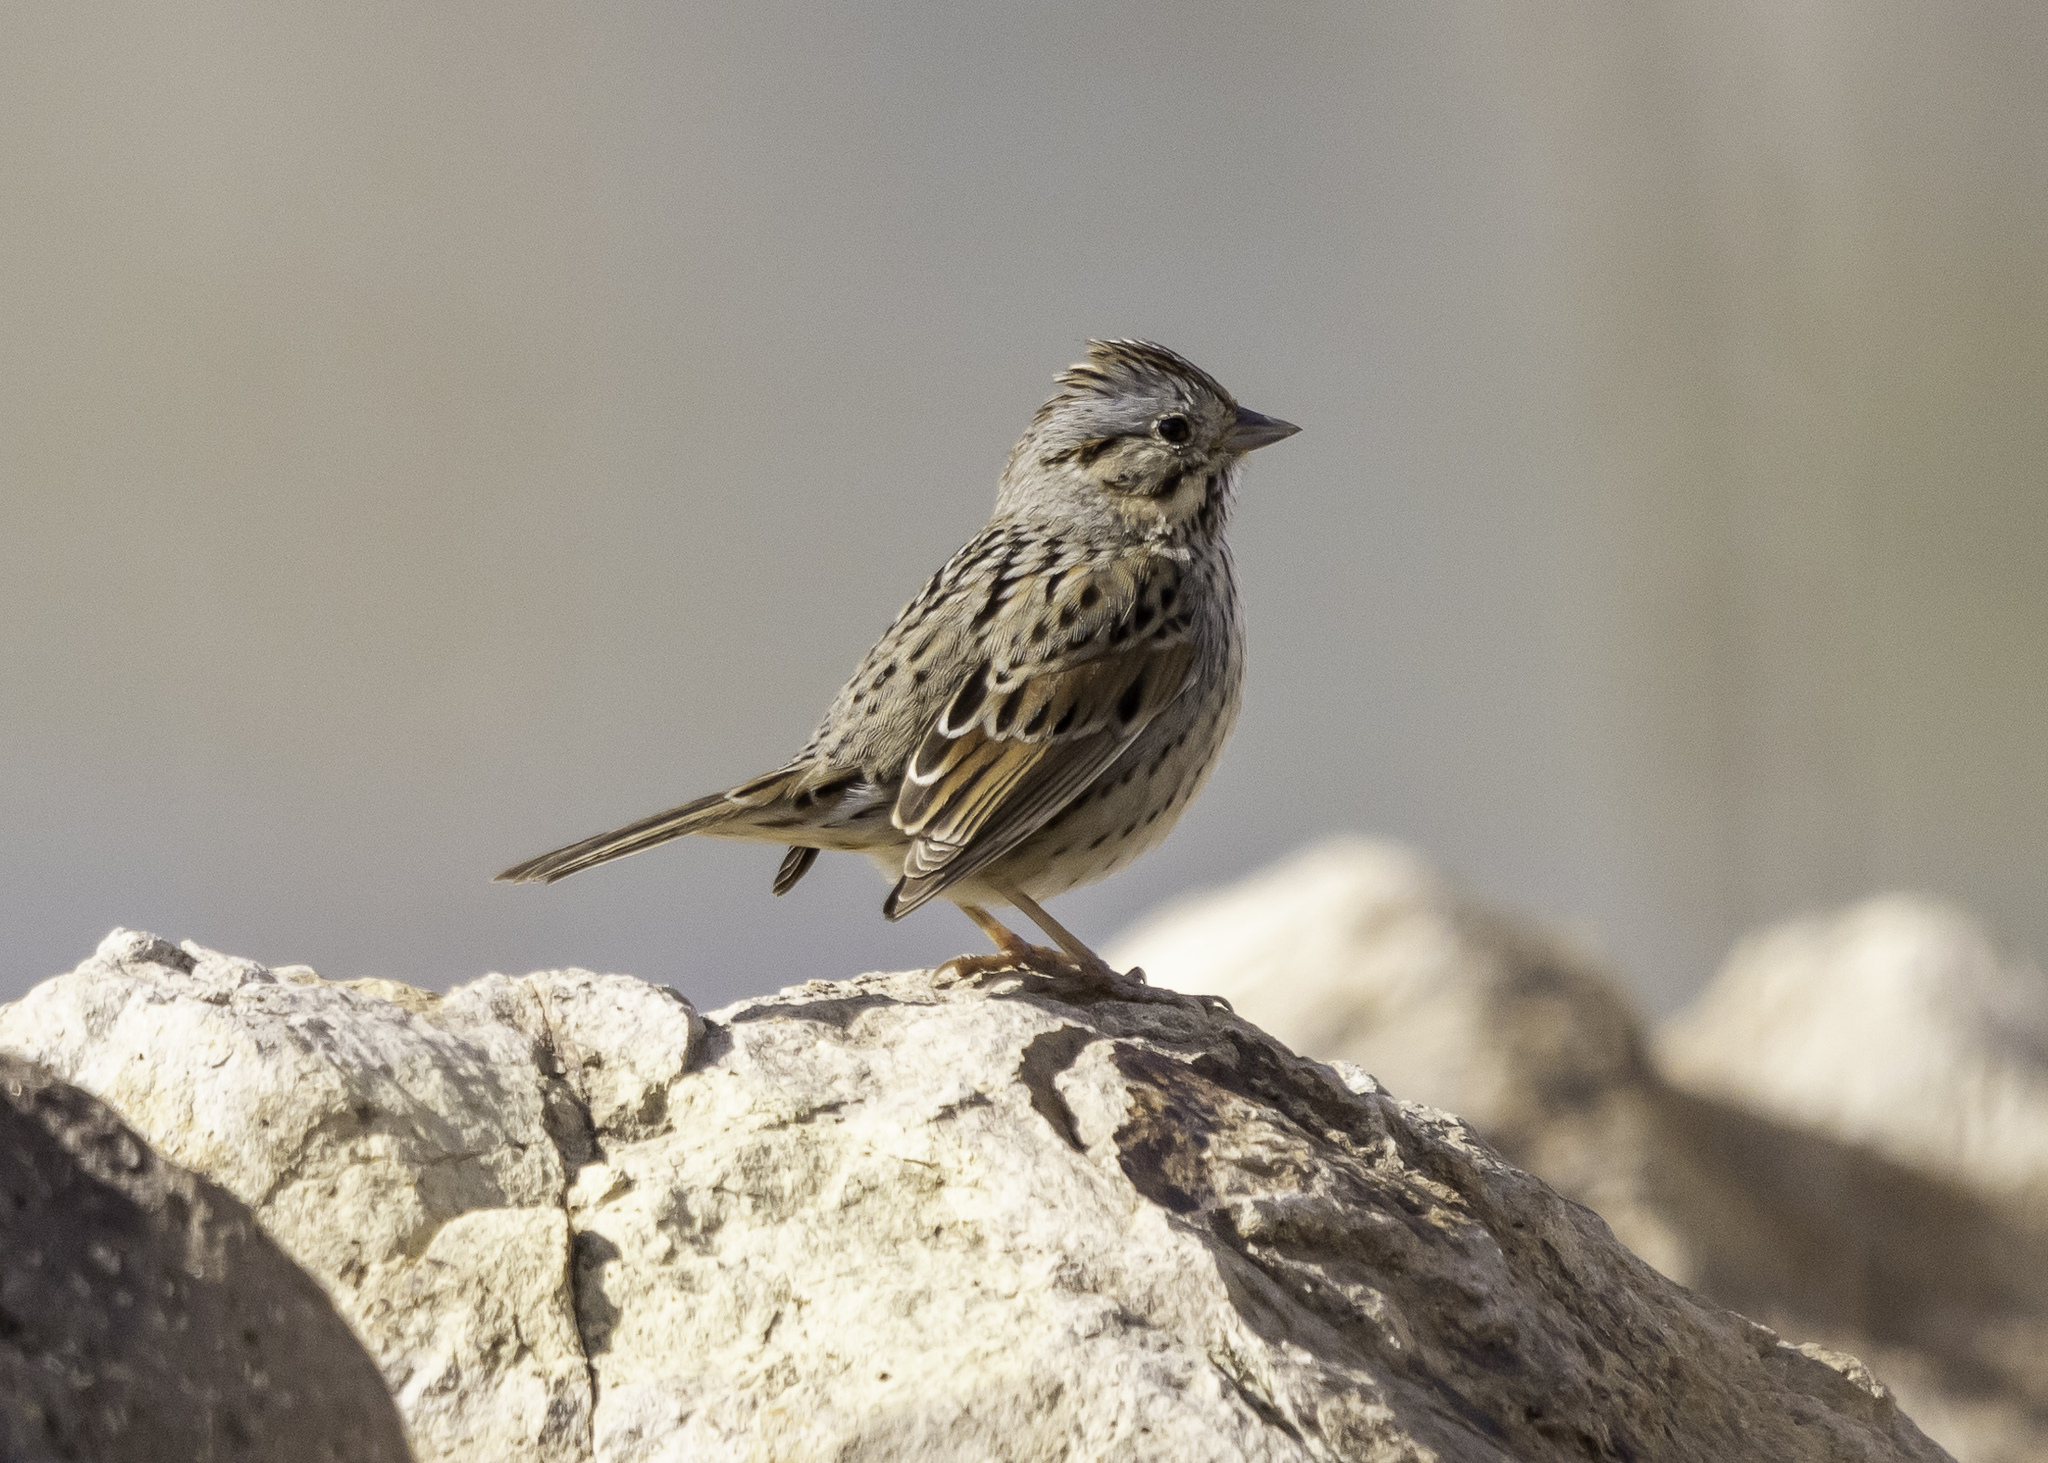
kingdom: Animalia
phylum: Chordata
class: Aves
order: Passeriformes
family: Passerellidae
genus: Melospiza
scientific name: Melospiza lincolnii
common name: Lincoln's sparrow
